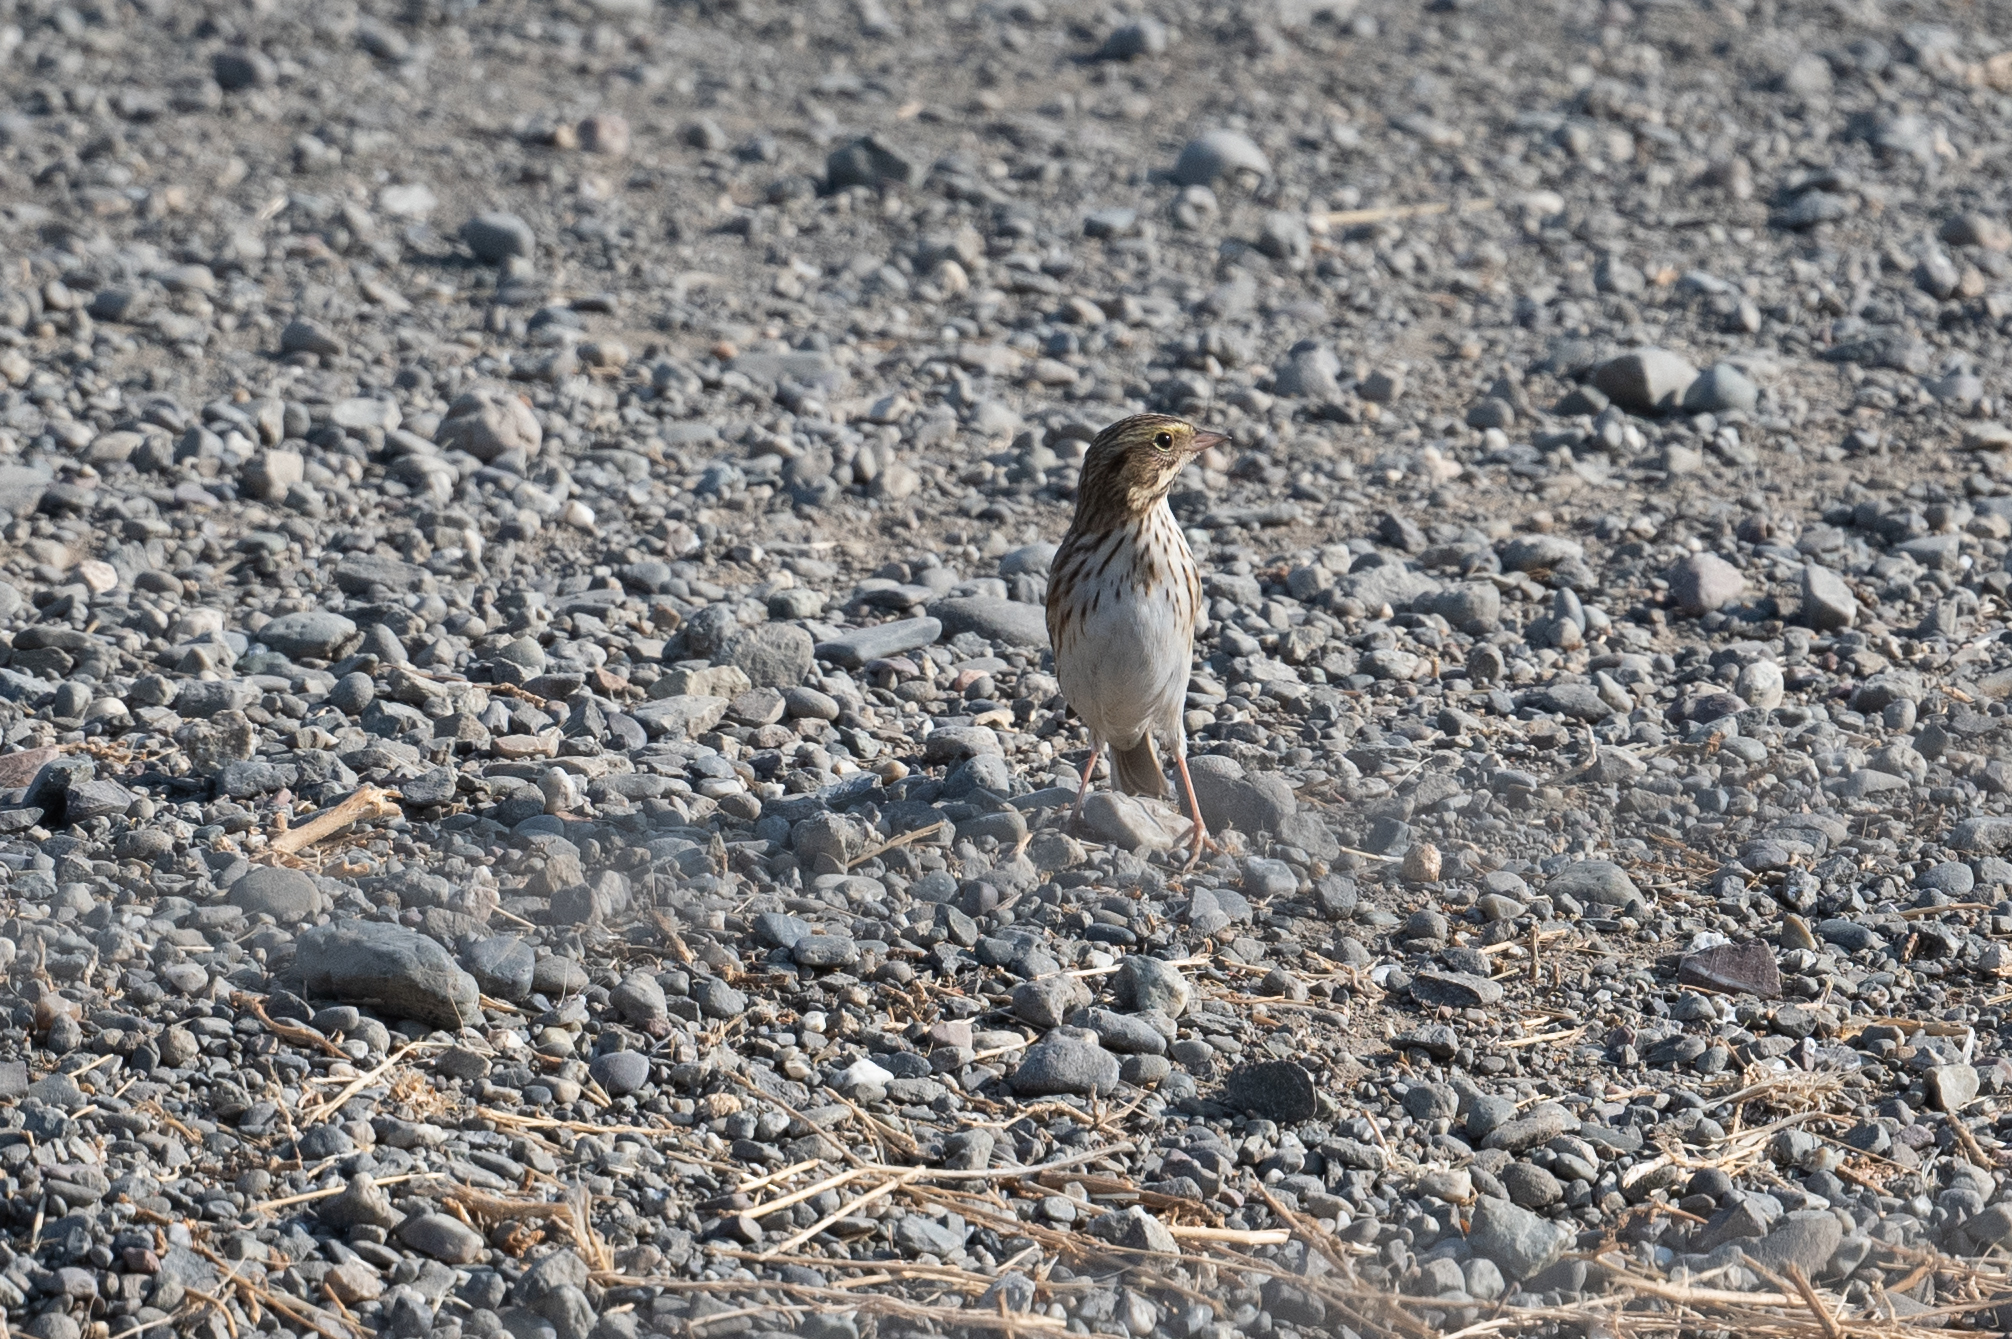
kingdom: Animalia
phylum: Chordata
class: Aves
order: Passeriformes
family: Passerellidae
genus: Passerculus
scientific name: Passerculus sandwichensis
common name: Savannah sparrow
